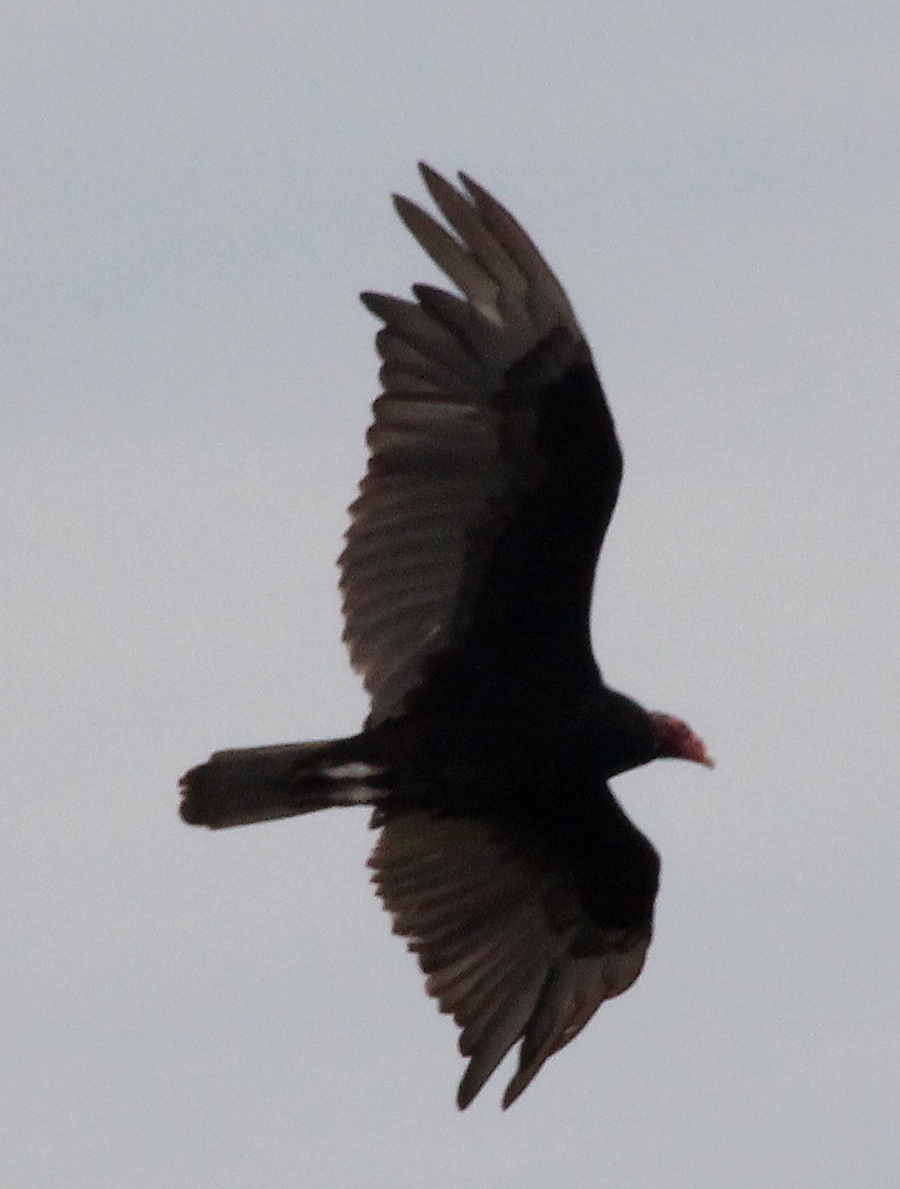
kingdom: Animalia
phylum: Chordata
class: Aves
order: Accipitriformes
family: Cathartidae
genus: Cathartes
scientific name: Cathartes aura
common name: Turkey vulture
